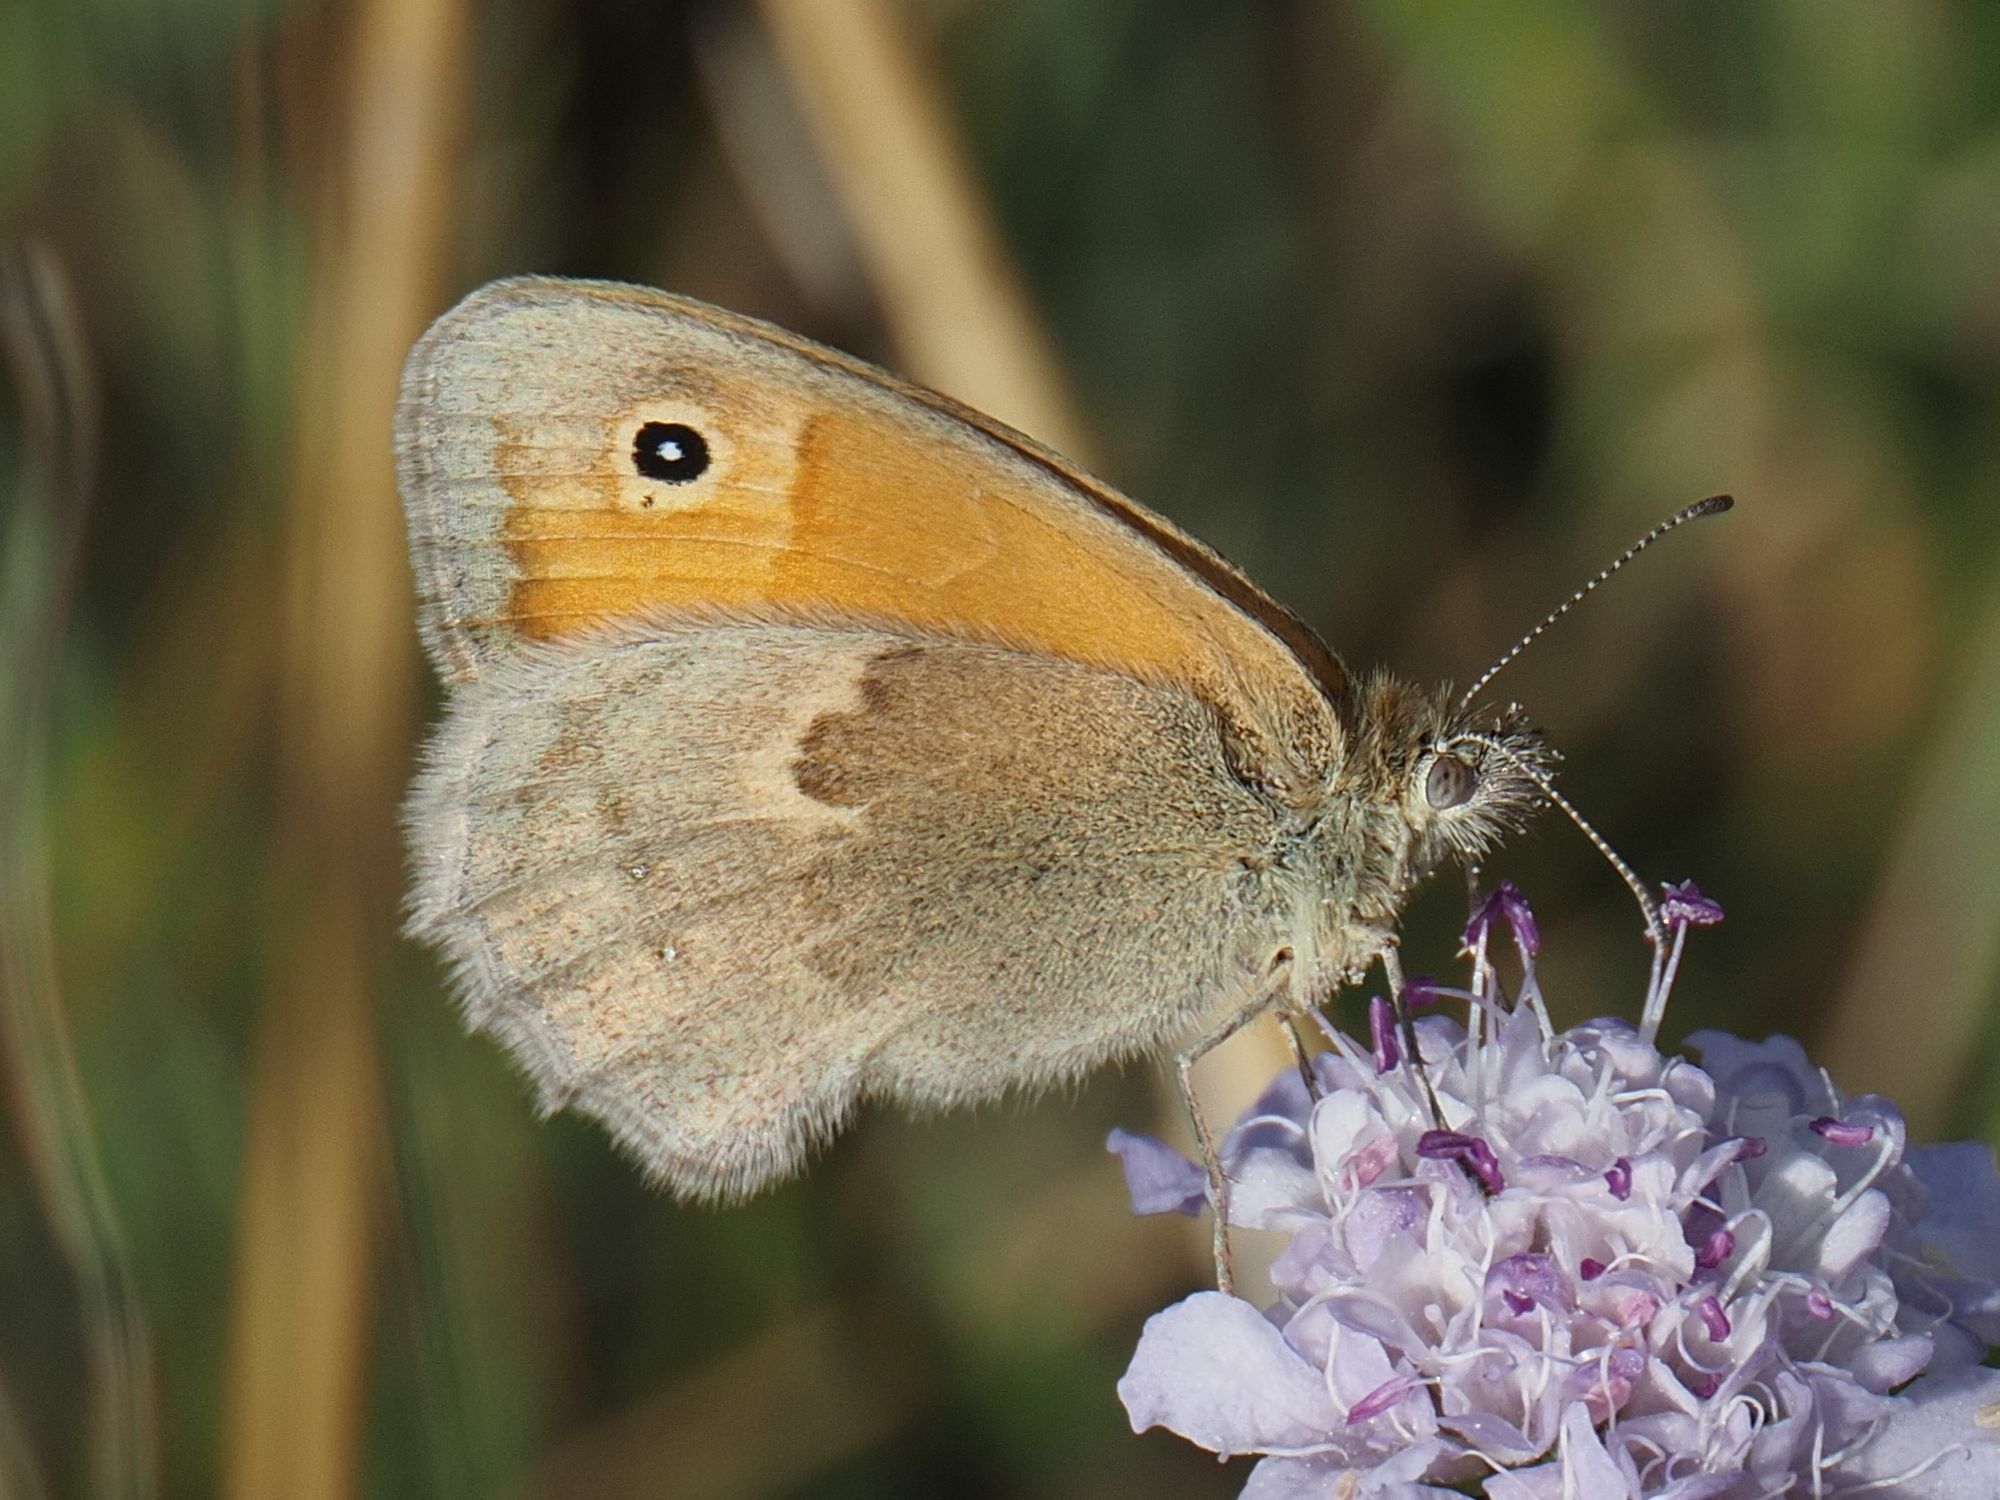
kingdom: Animalia
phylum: Arthropoda
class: Insecta
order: Lepidoptera
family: Nymphalidae
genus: Coenonympha
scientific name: Coenonympha pamphilus
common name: Small heath
